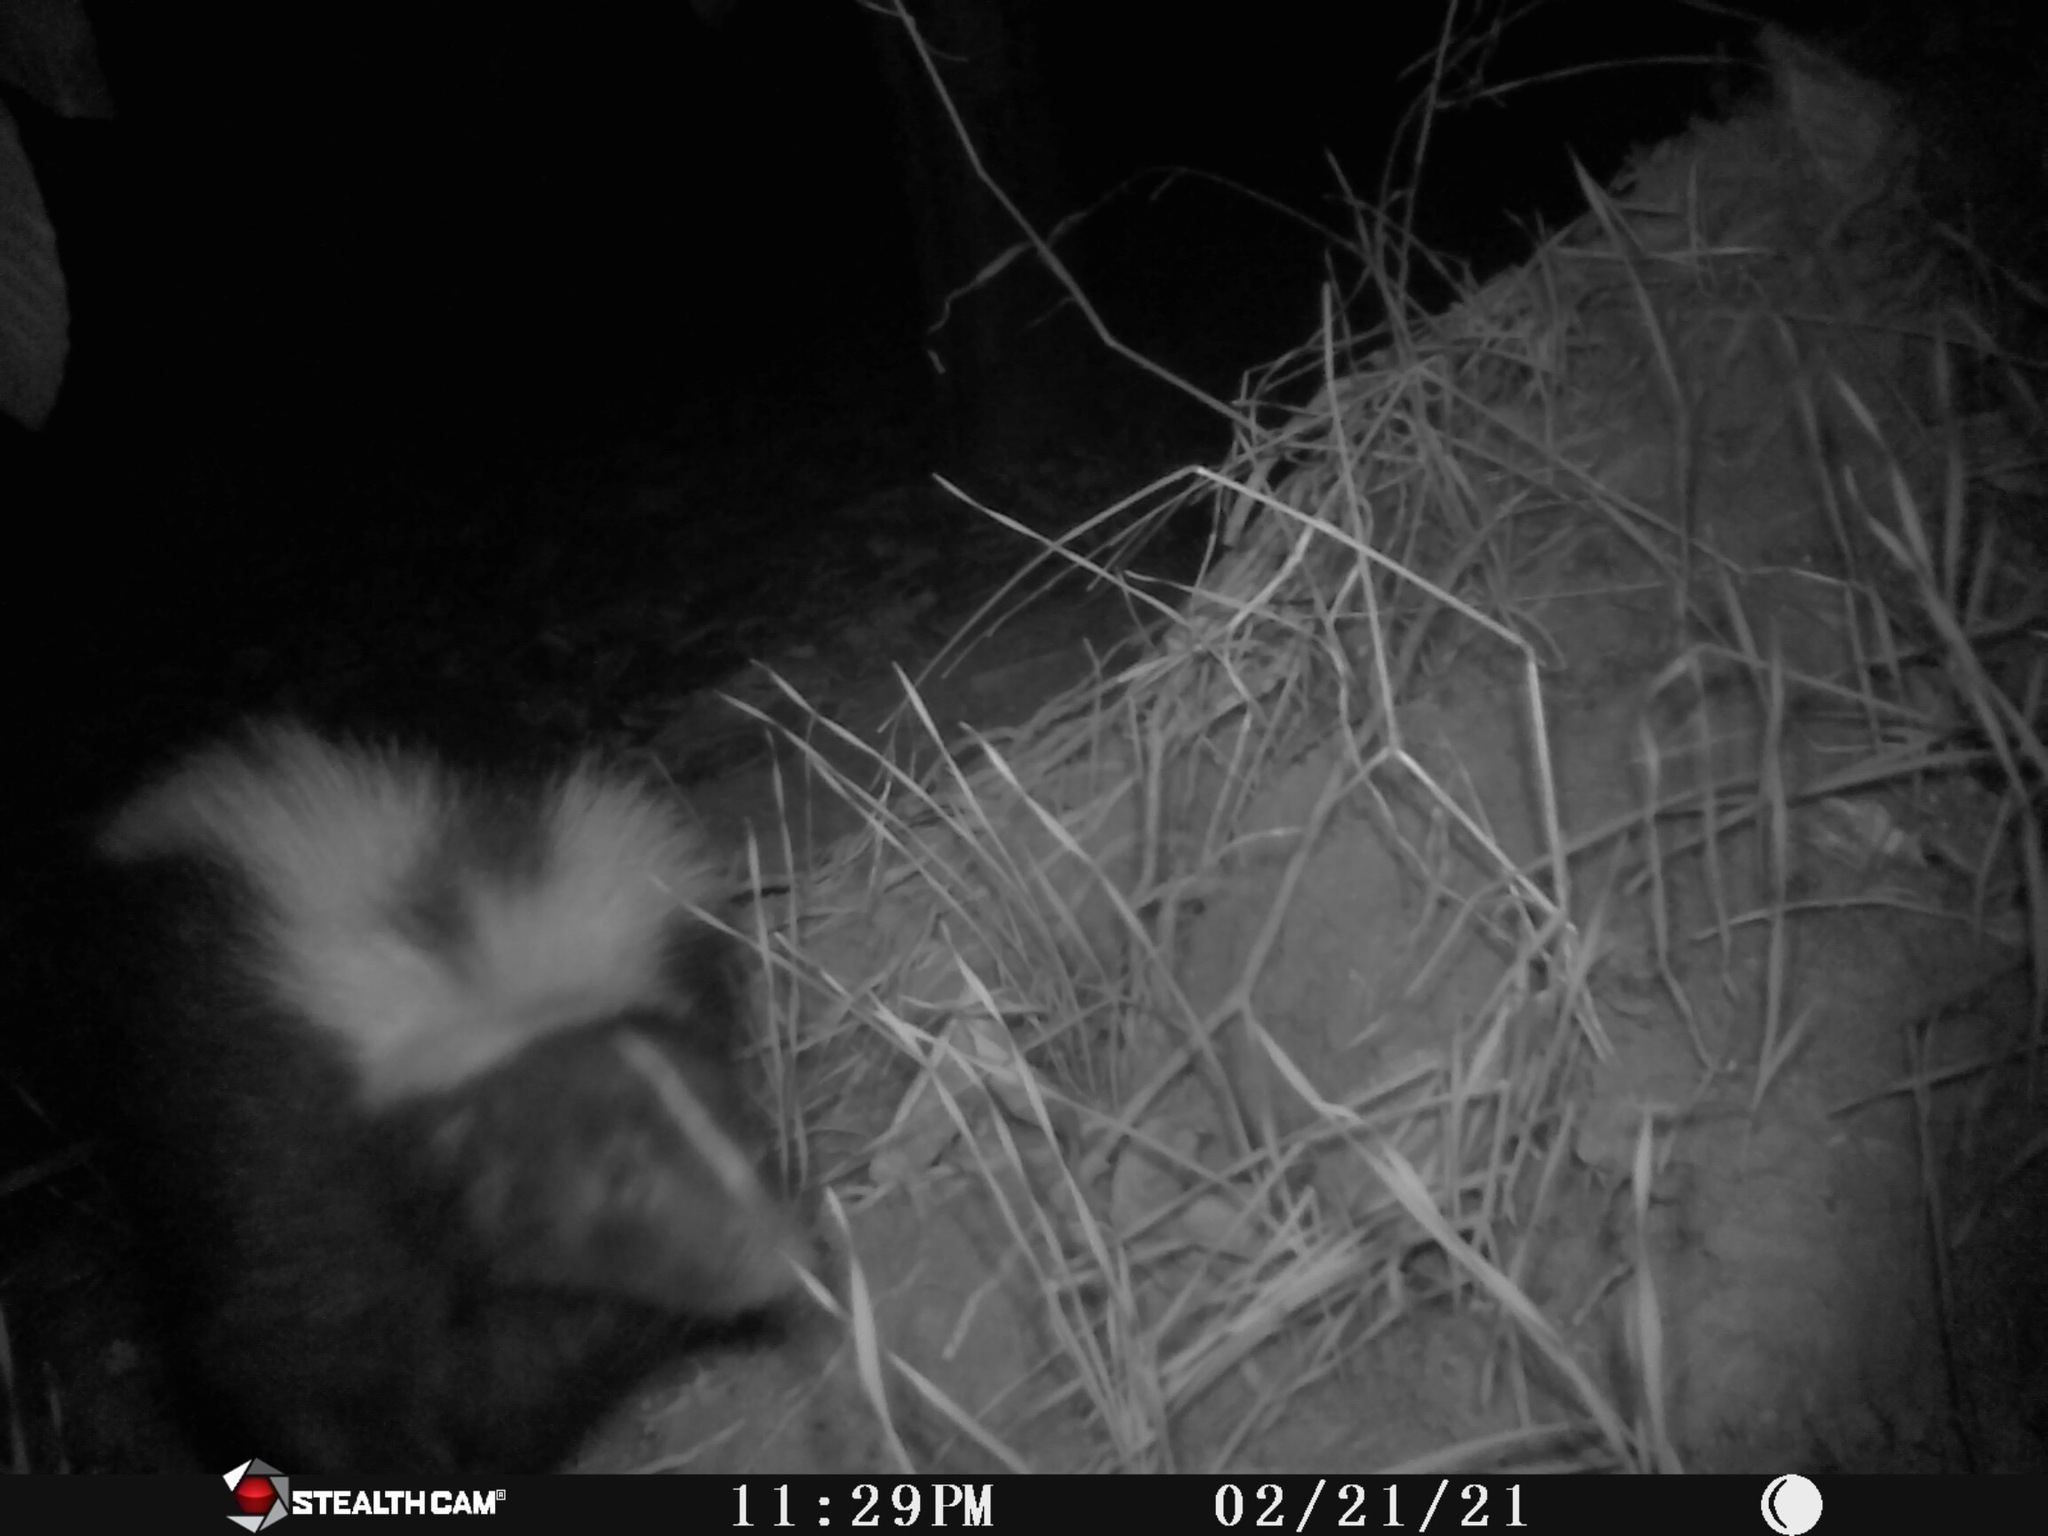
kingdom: Animalia
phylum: Chordata
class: Mammalia
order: Carnivora
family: Mephitidae
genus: Mephitis
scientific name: Mephitis mephitis
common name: Striped skunk
